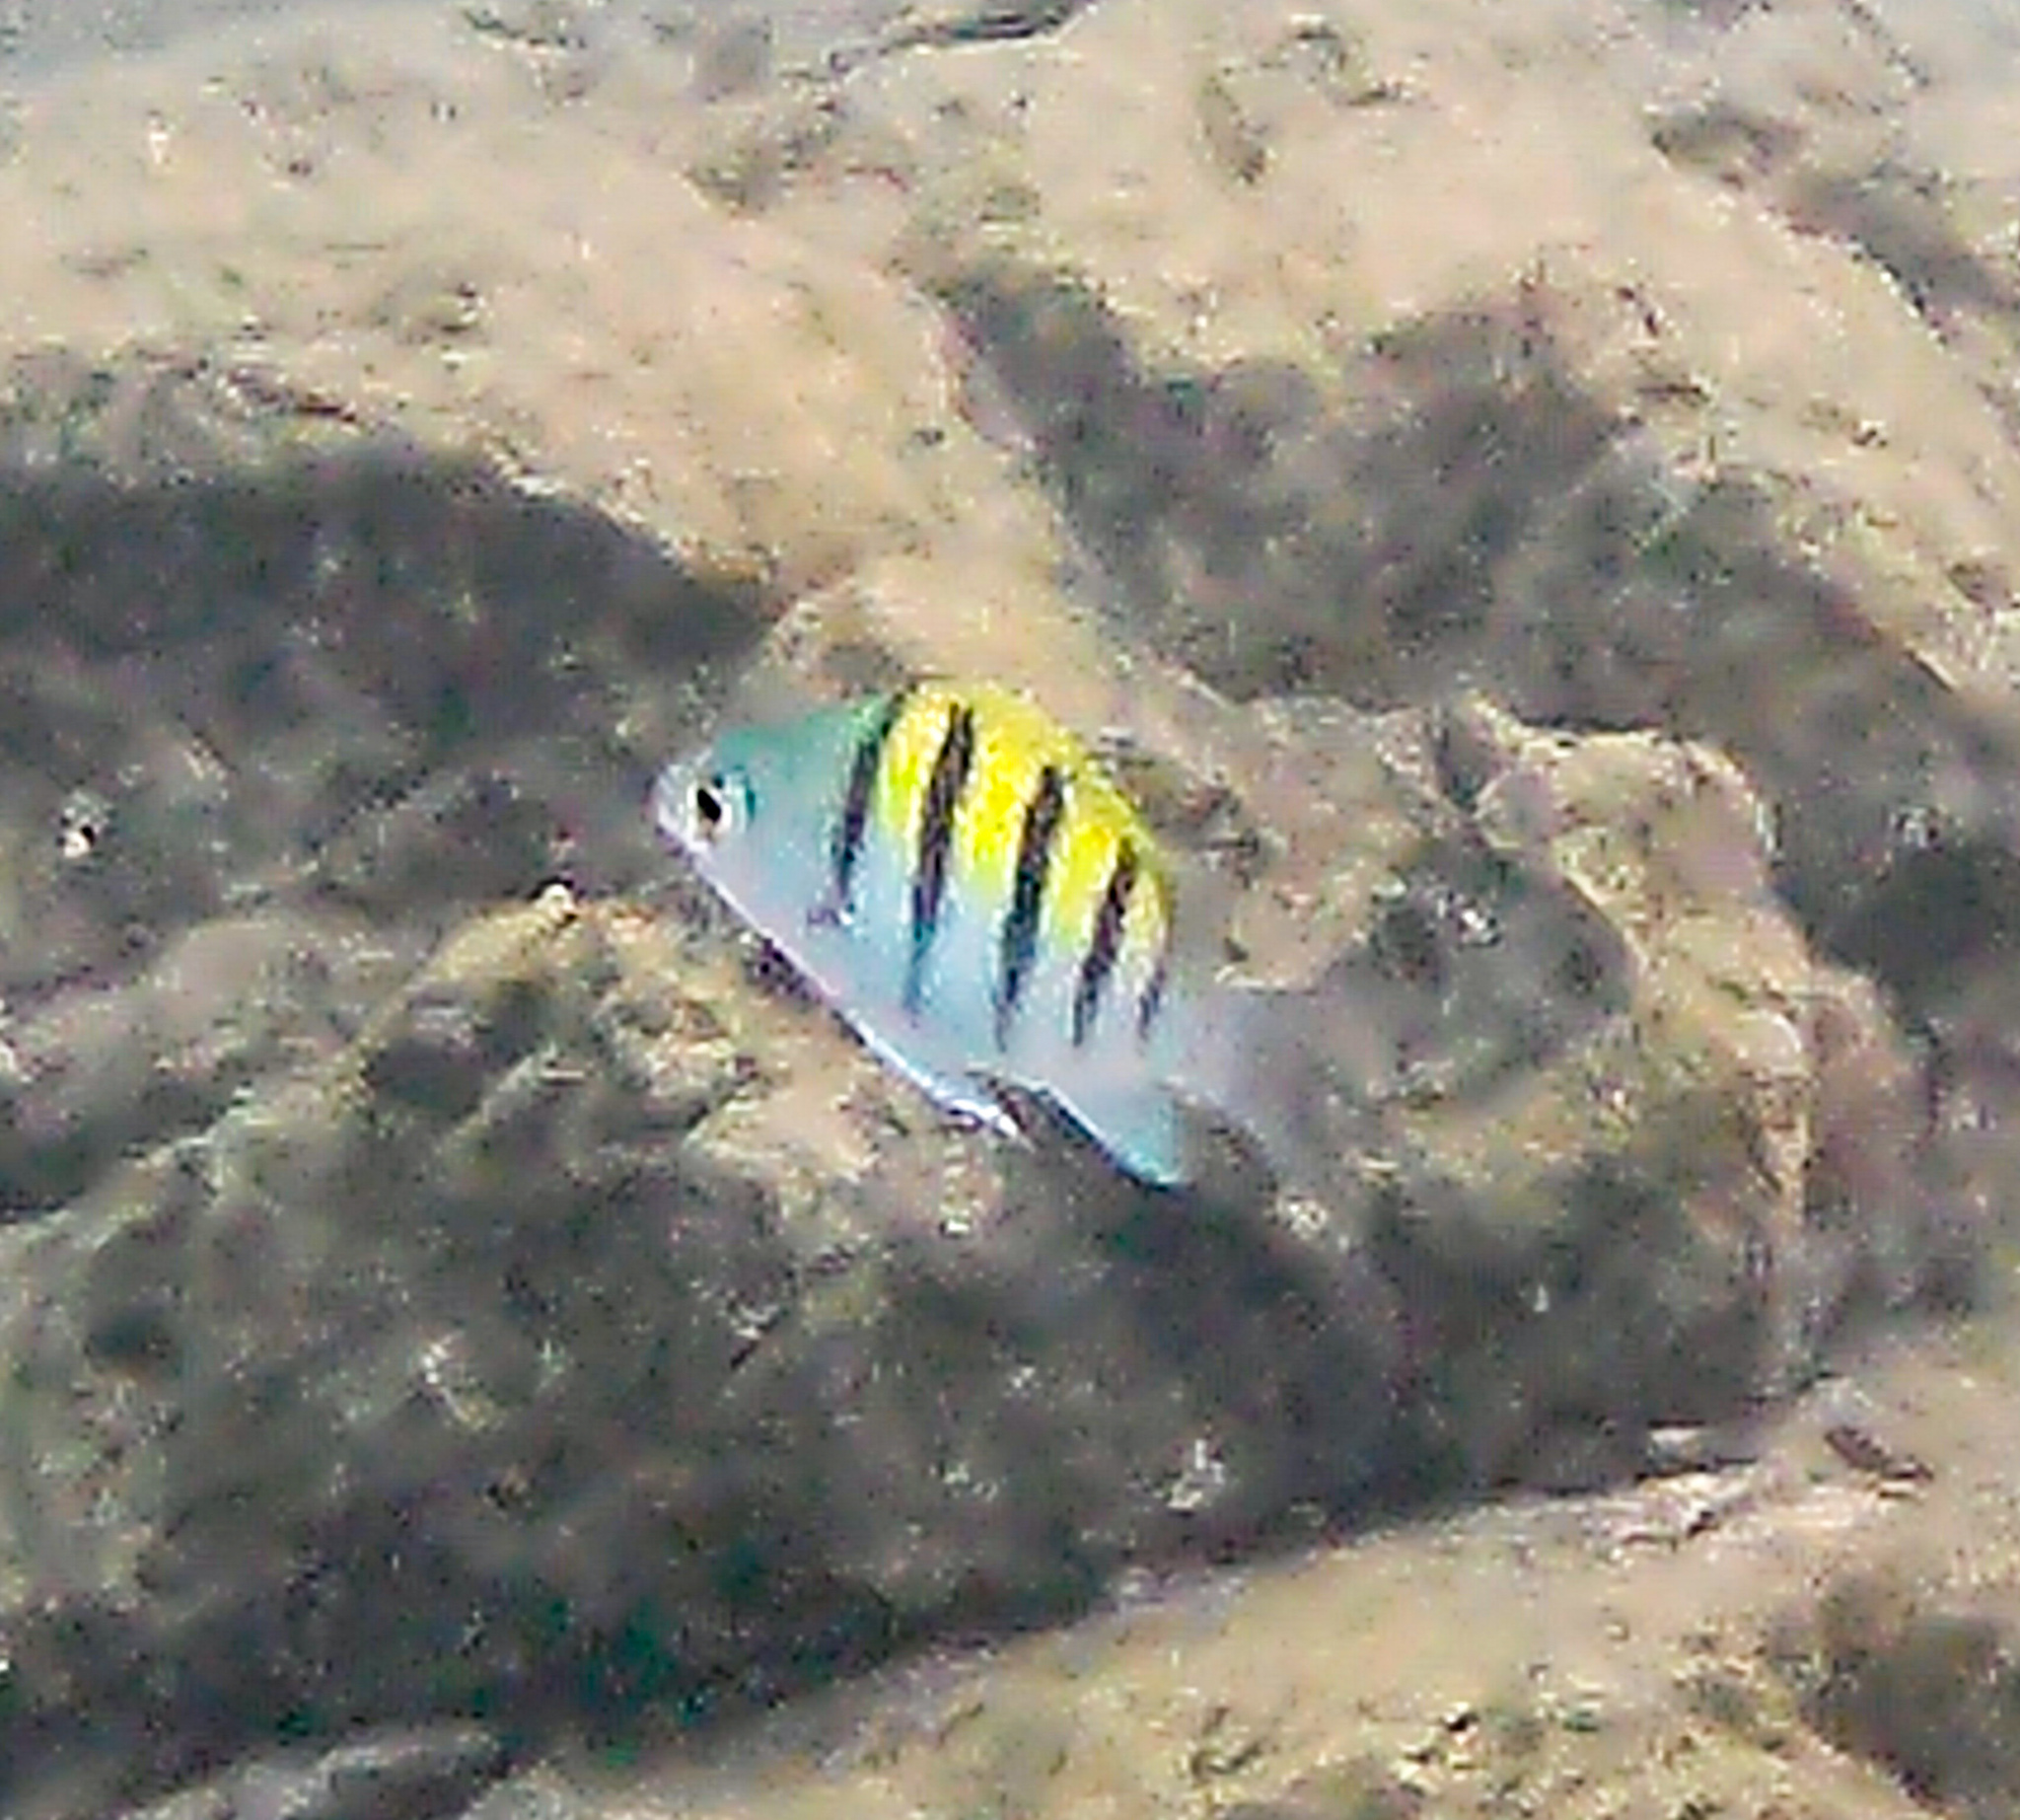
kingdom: Animalia
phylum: Chordata
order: Perciformes
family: Pomacentridae
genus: Abudefduf
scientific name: Abudefduf troschelii
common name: Panamic sergeant major
